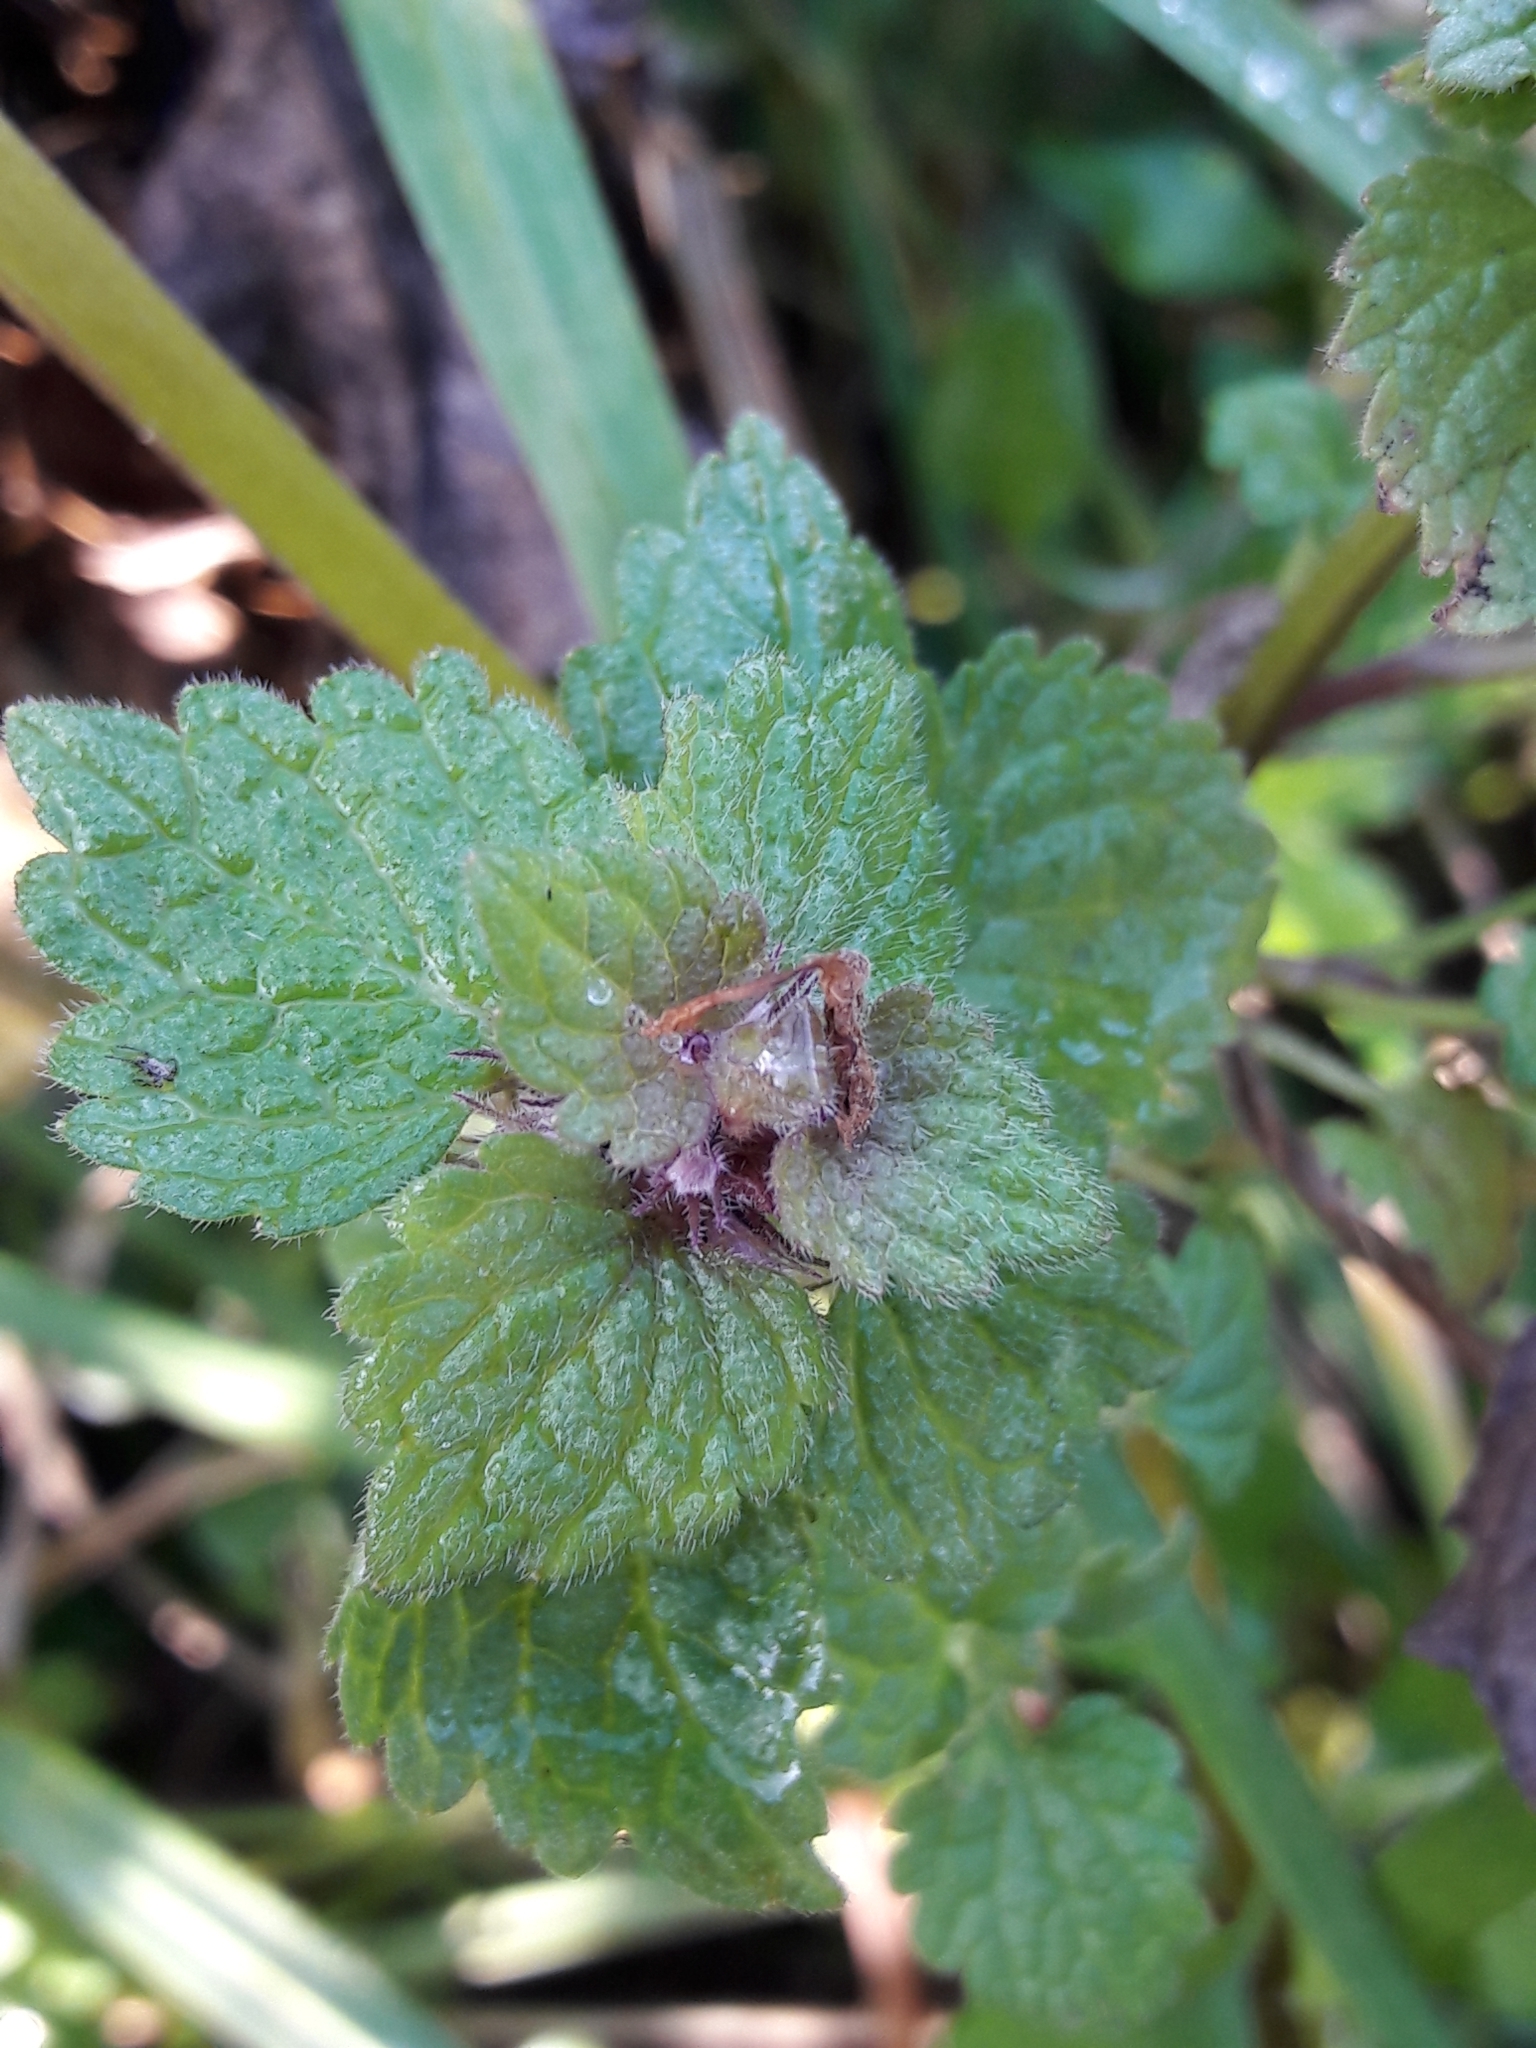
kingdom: Plantae
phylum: Tracheophyta
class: Magnoliopsida
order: Lamiales
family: Lamiaceae
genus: Lamium
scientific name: Lamium purpureum
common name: Red dead-nettle
